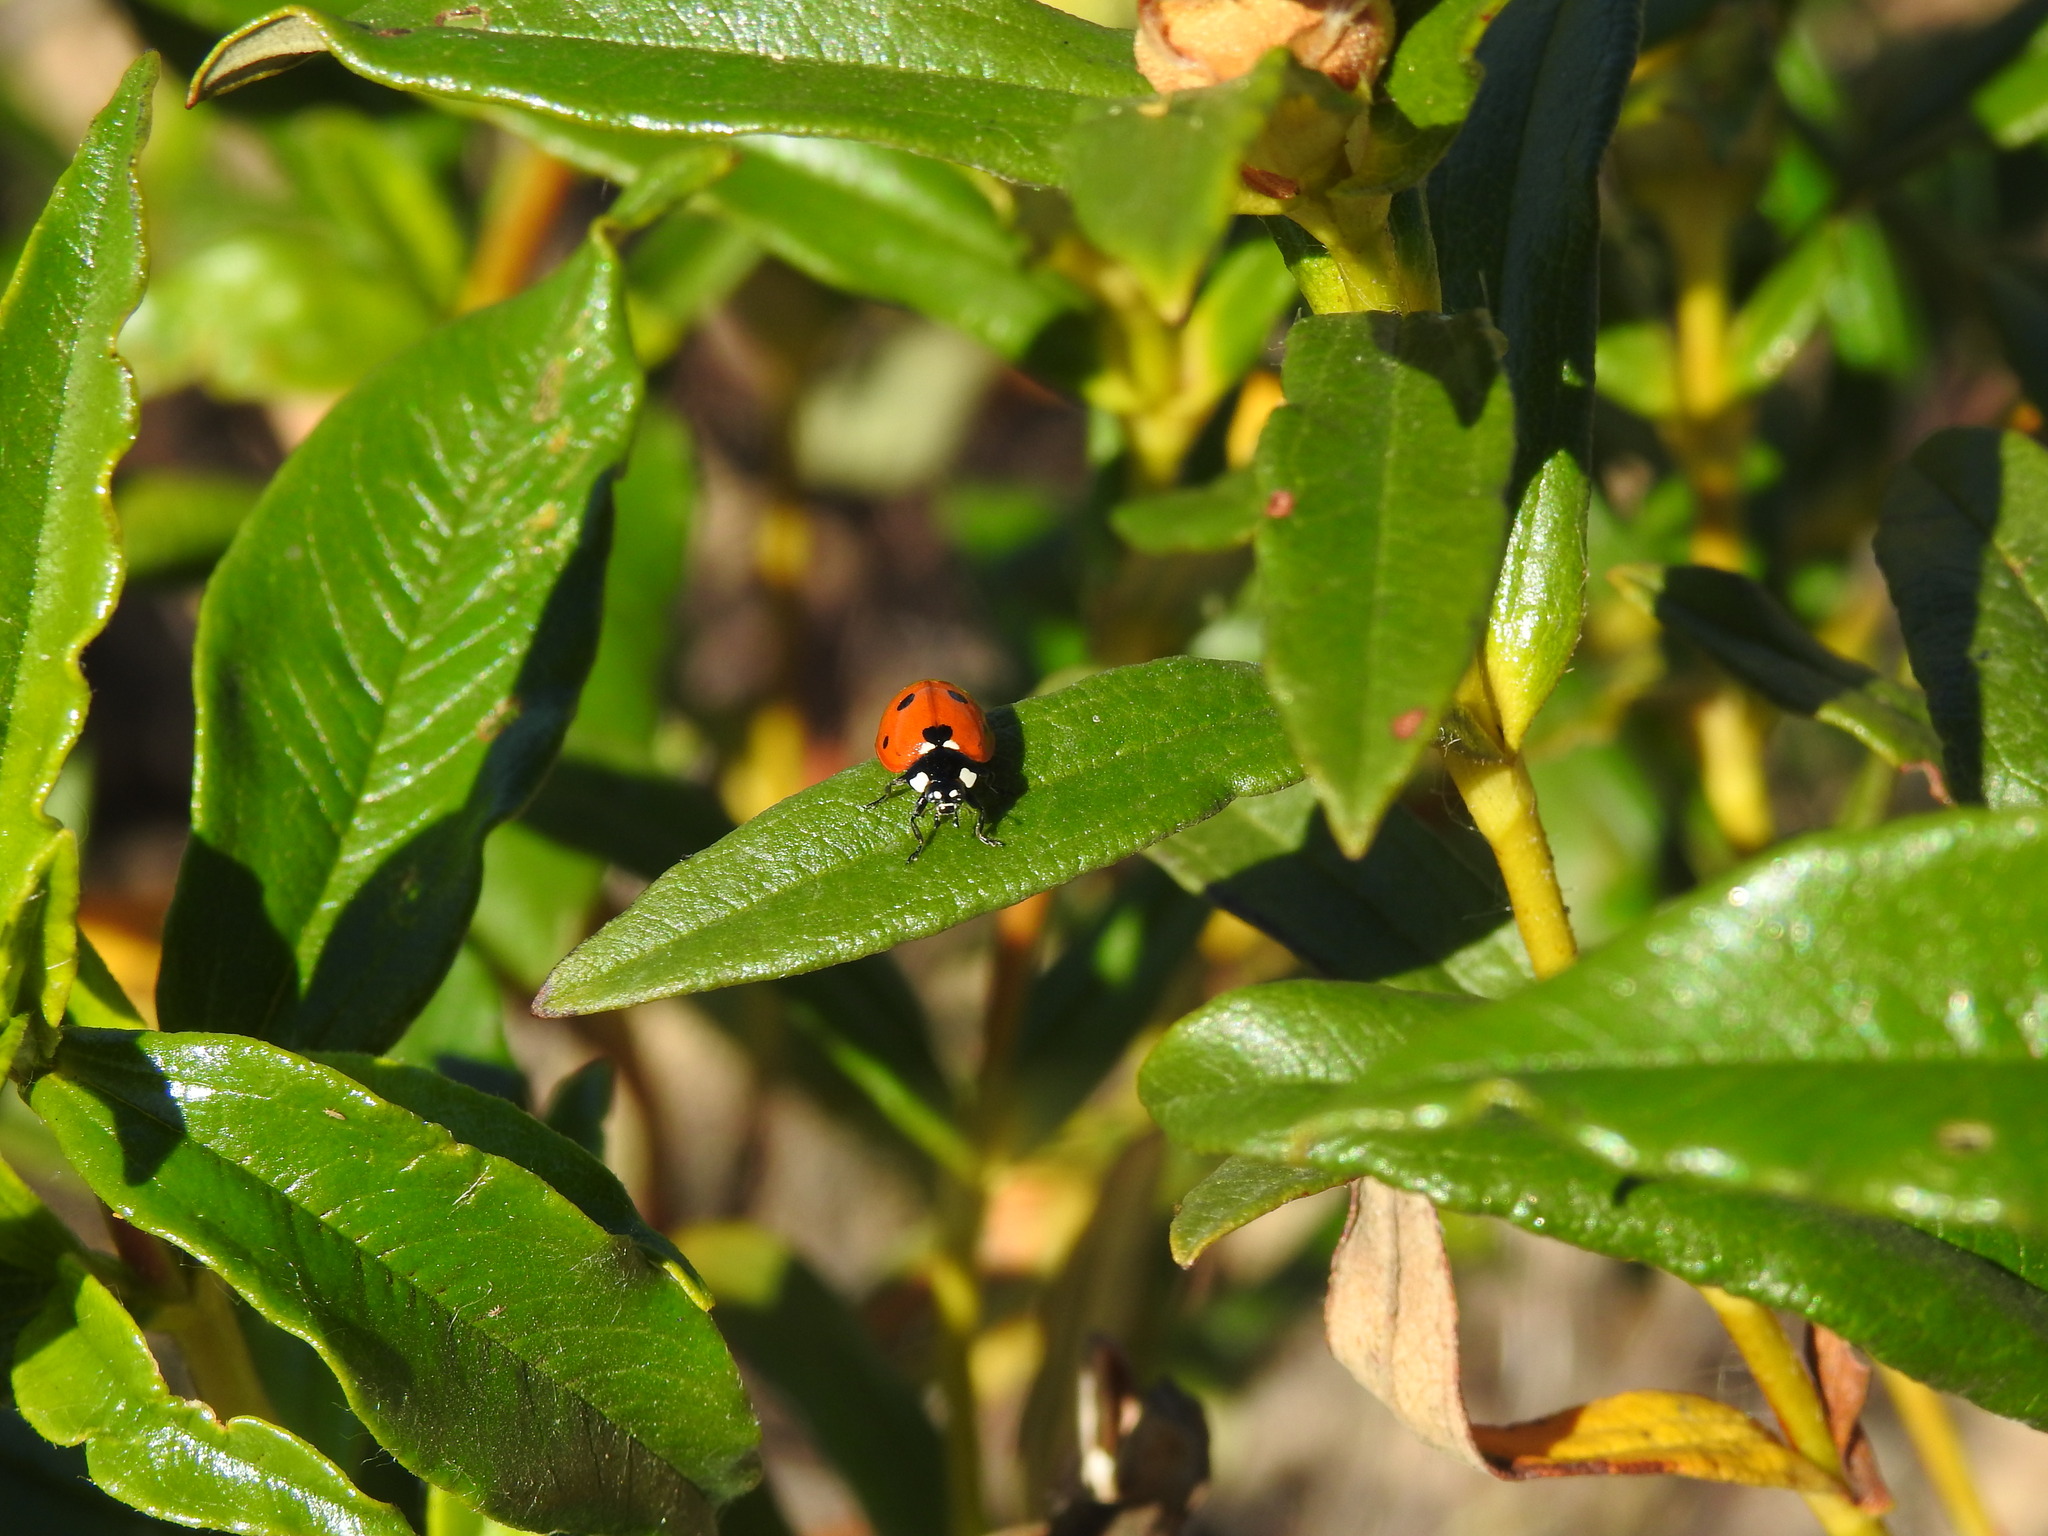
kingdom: Animalia
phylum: Arthropoda
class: Insecta
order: Coleoptera
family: Coccinellidae
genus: Coccinella
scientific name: Coccinella septempunctata
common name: Sevenspotted lady beetle
